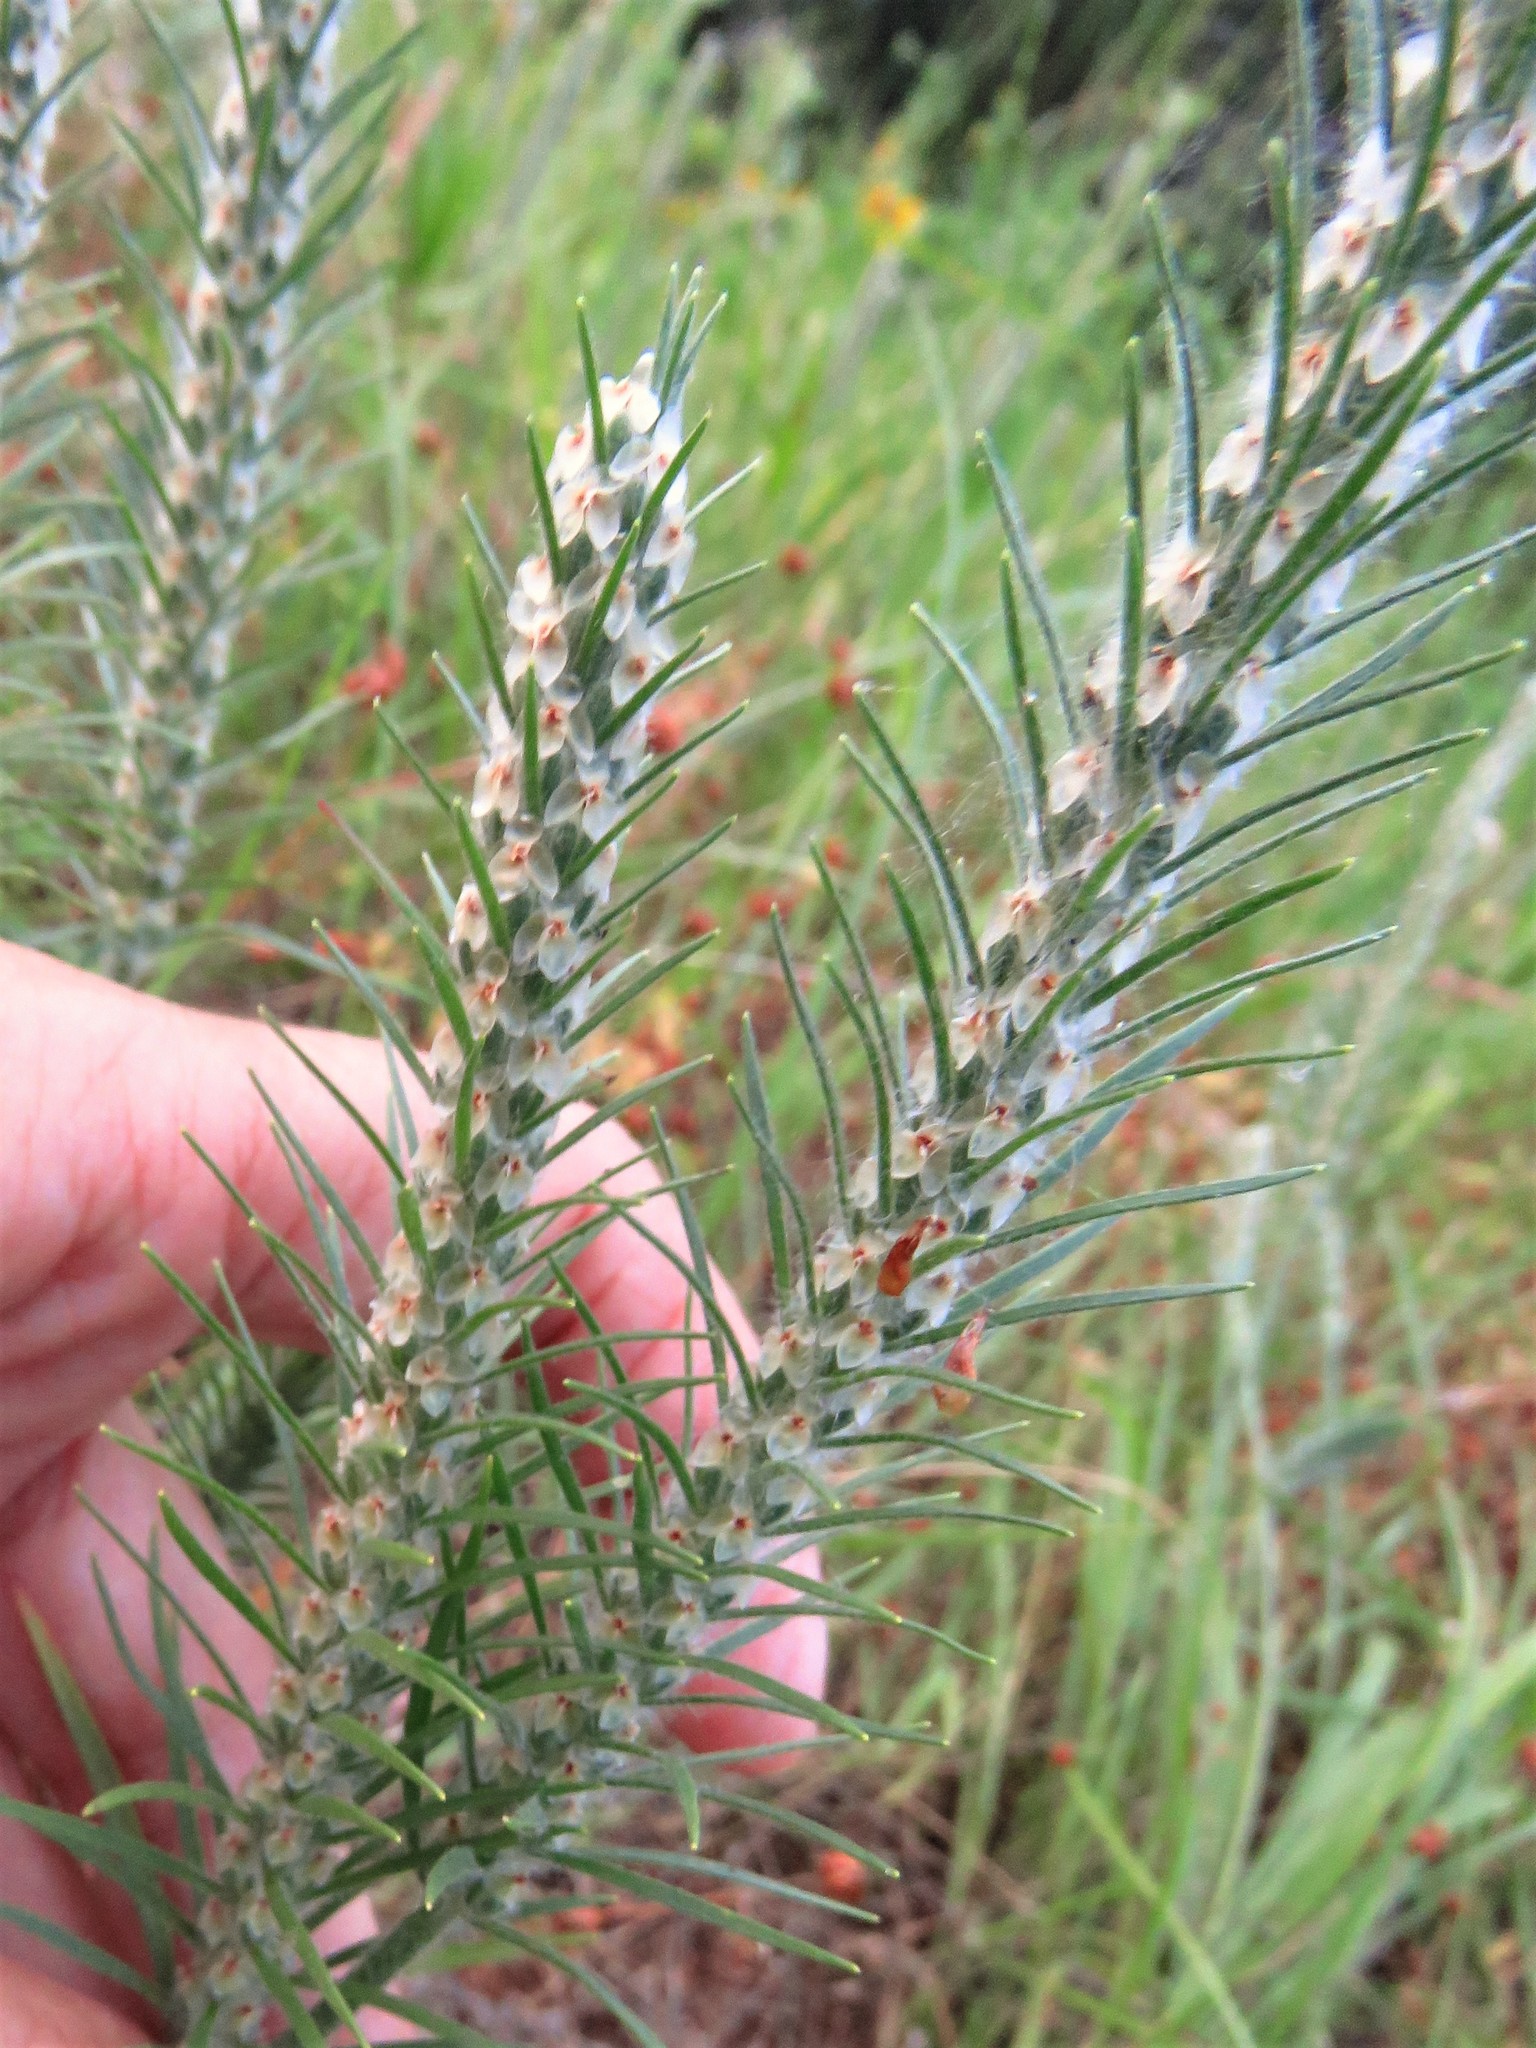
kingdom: Plantae
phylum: Tracheophyta
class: Magnoliopsida
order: Lamiales
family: Plantaginaceae
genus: Plantago
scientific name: Plantago aristata
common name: Bracted plantain
